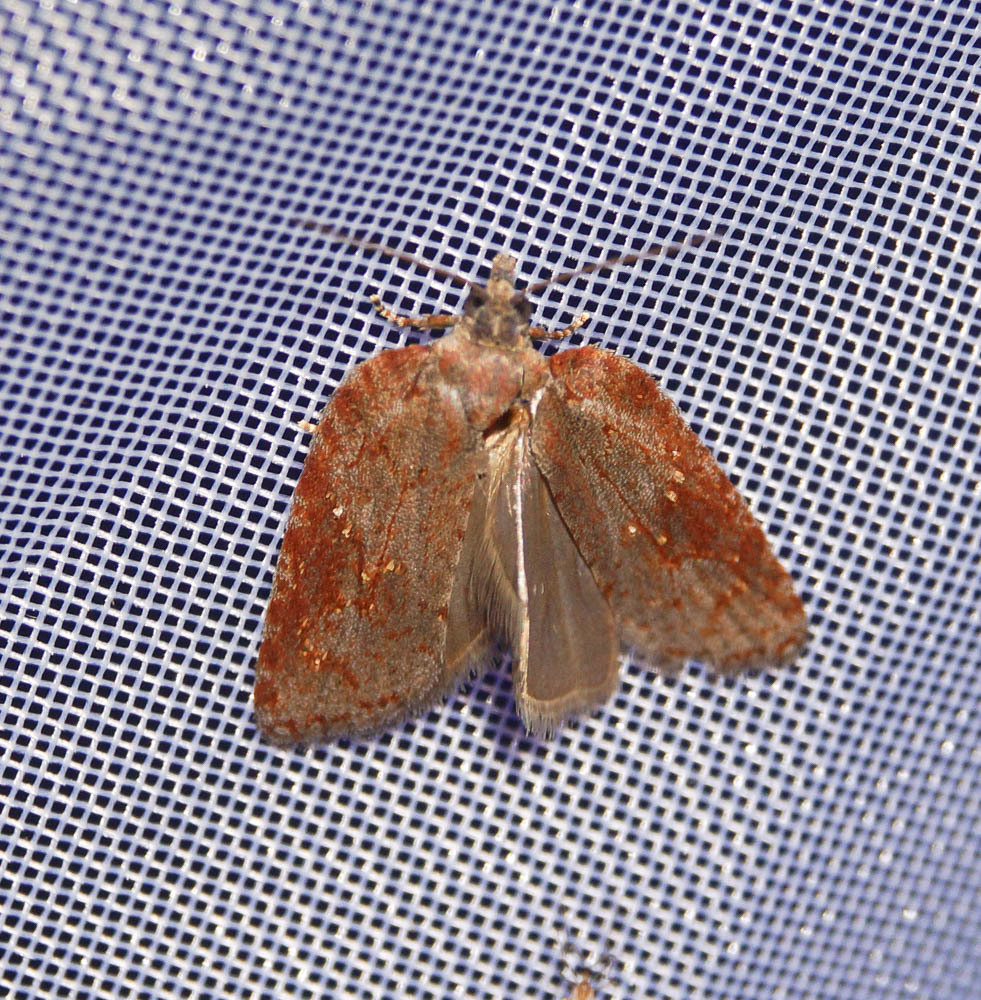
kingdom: Animalia
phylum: Arthropoda
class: Insecta
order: Lepidoptera
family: Tortricidae
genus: Acleris
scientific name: Acleris sparsana
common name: Ashy button
